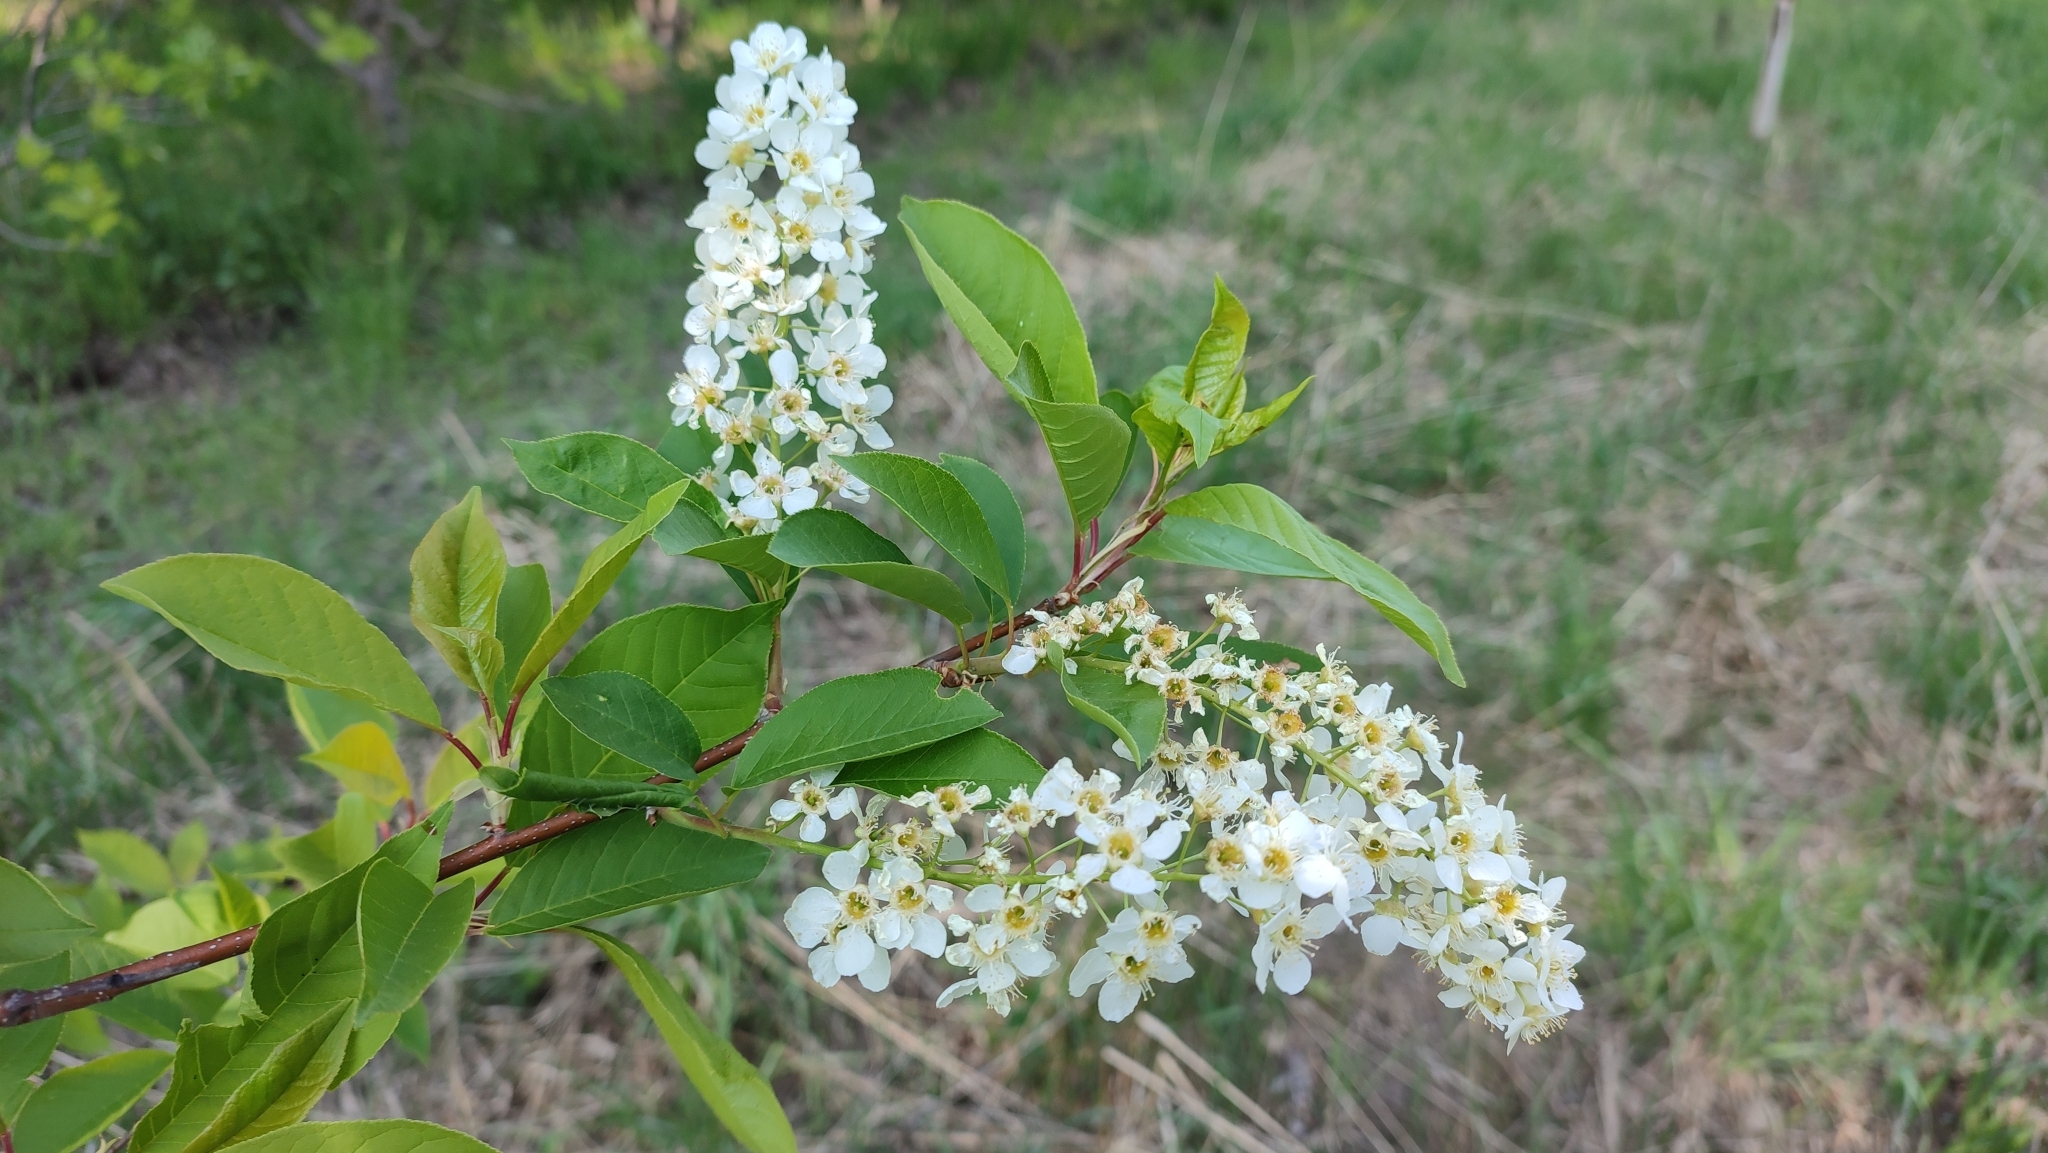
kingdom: Plantae
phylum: Tracheophyta
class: Magnoliopsida
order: Rosales
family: Rosaceae
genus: Prunus
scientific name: Prunus padus
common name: Bird cherry
